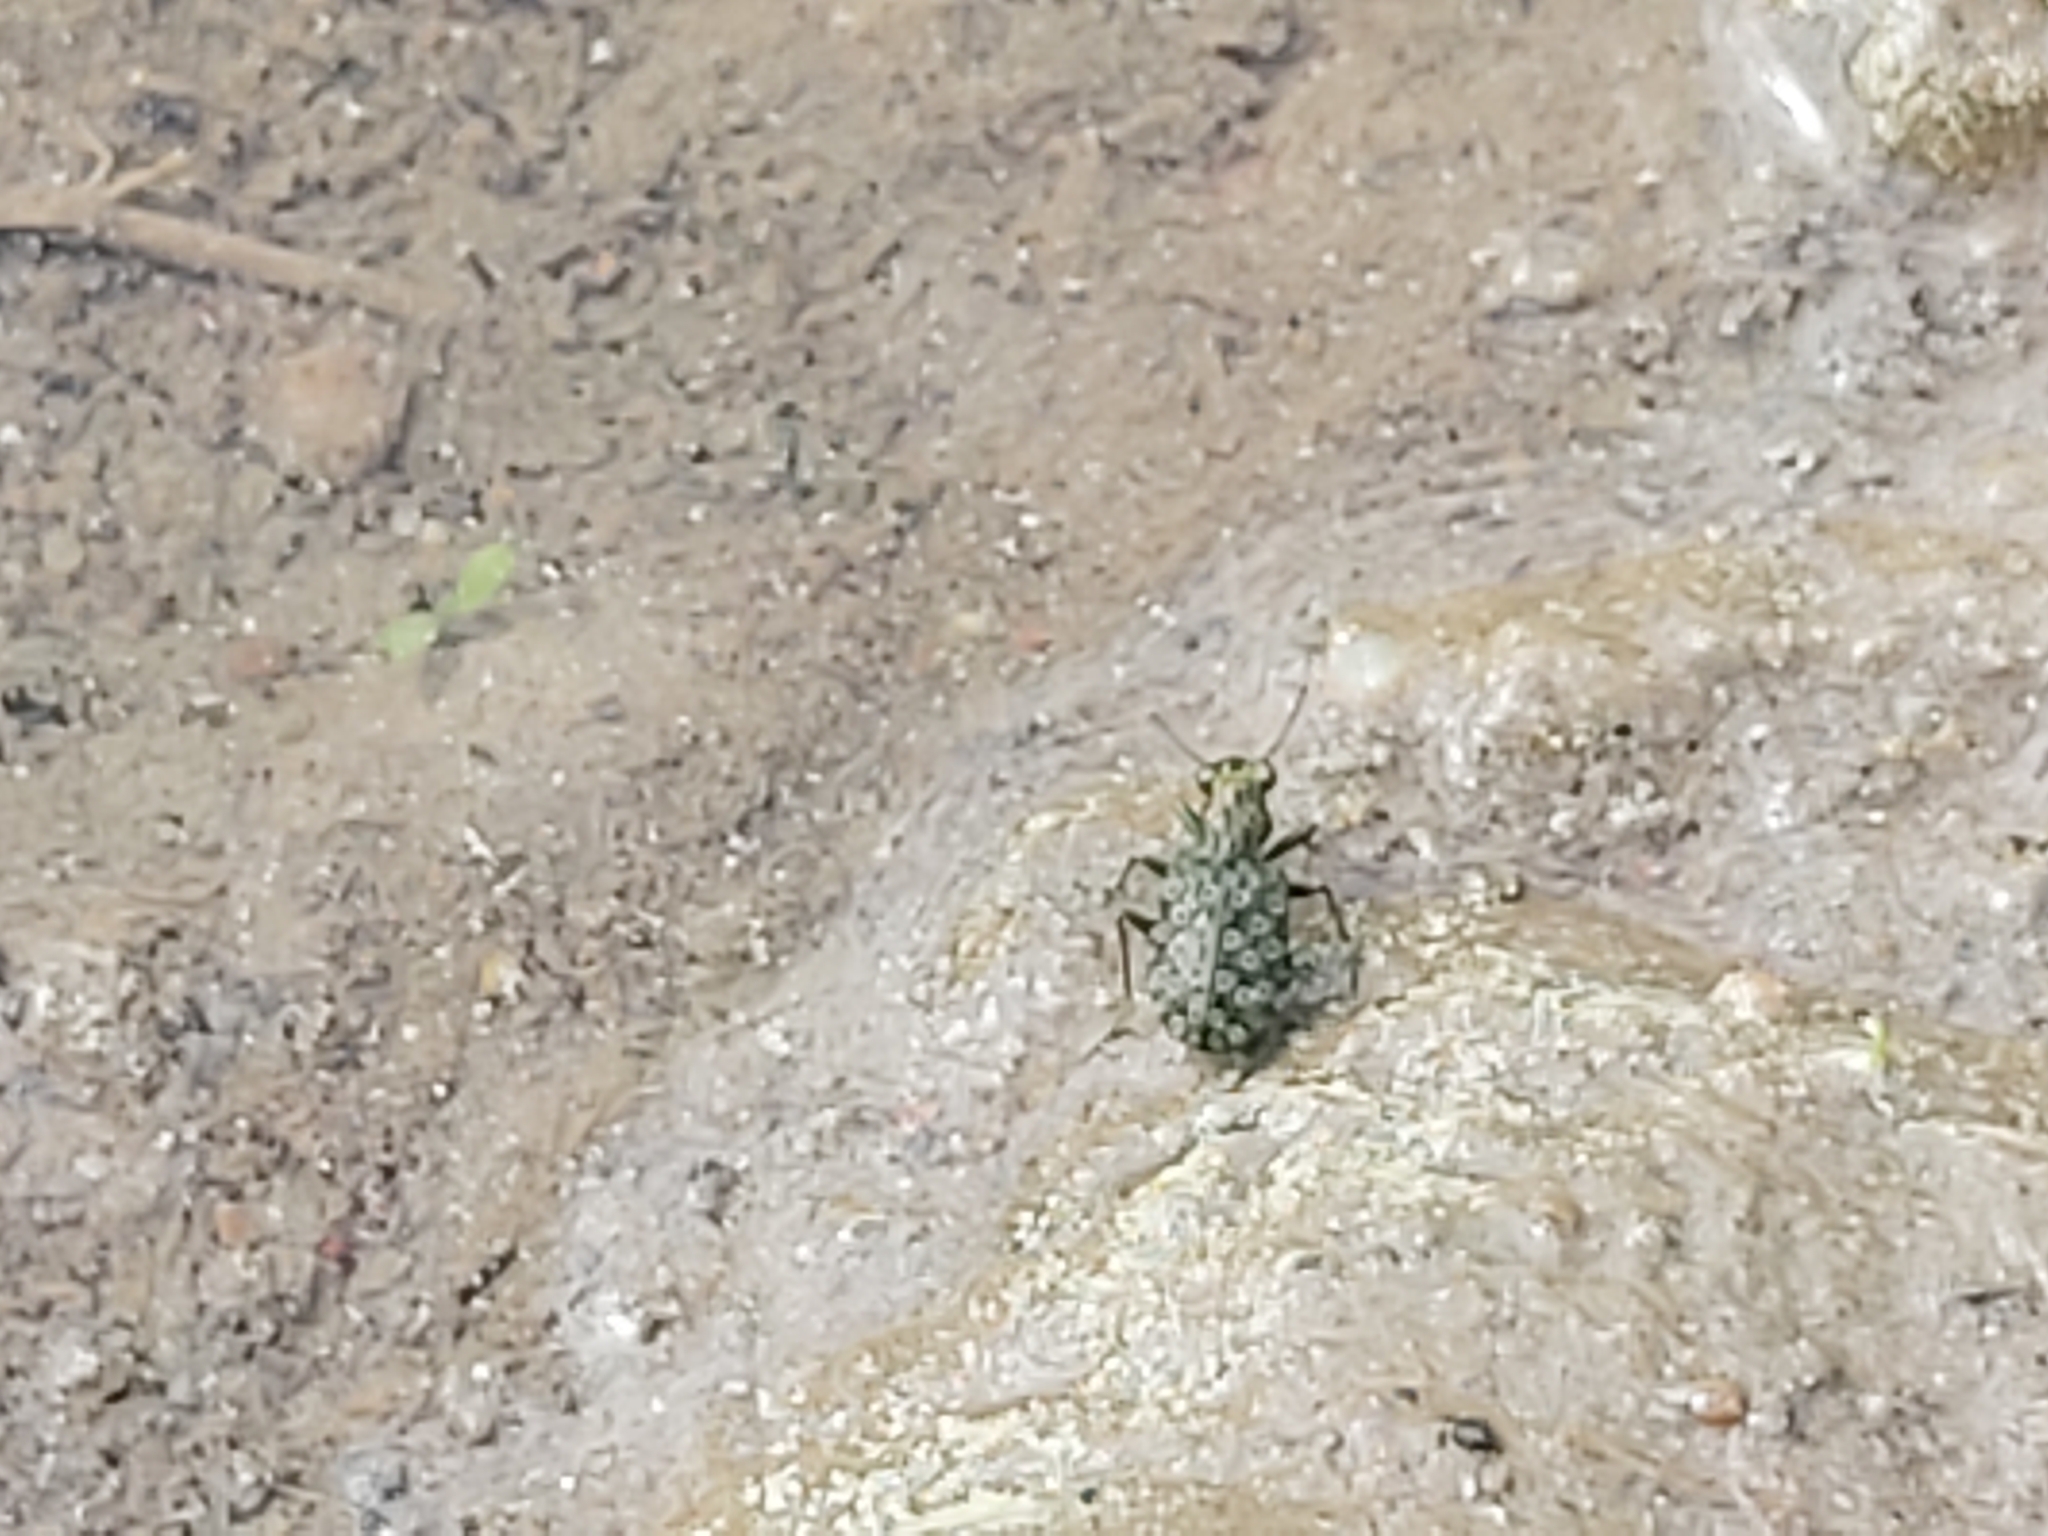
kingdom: Animalia
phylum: Arthropoda
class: Insecta
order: Coleoptera
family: Carabidae
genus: Elaphrus
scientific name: Elaphrus
